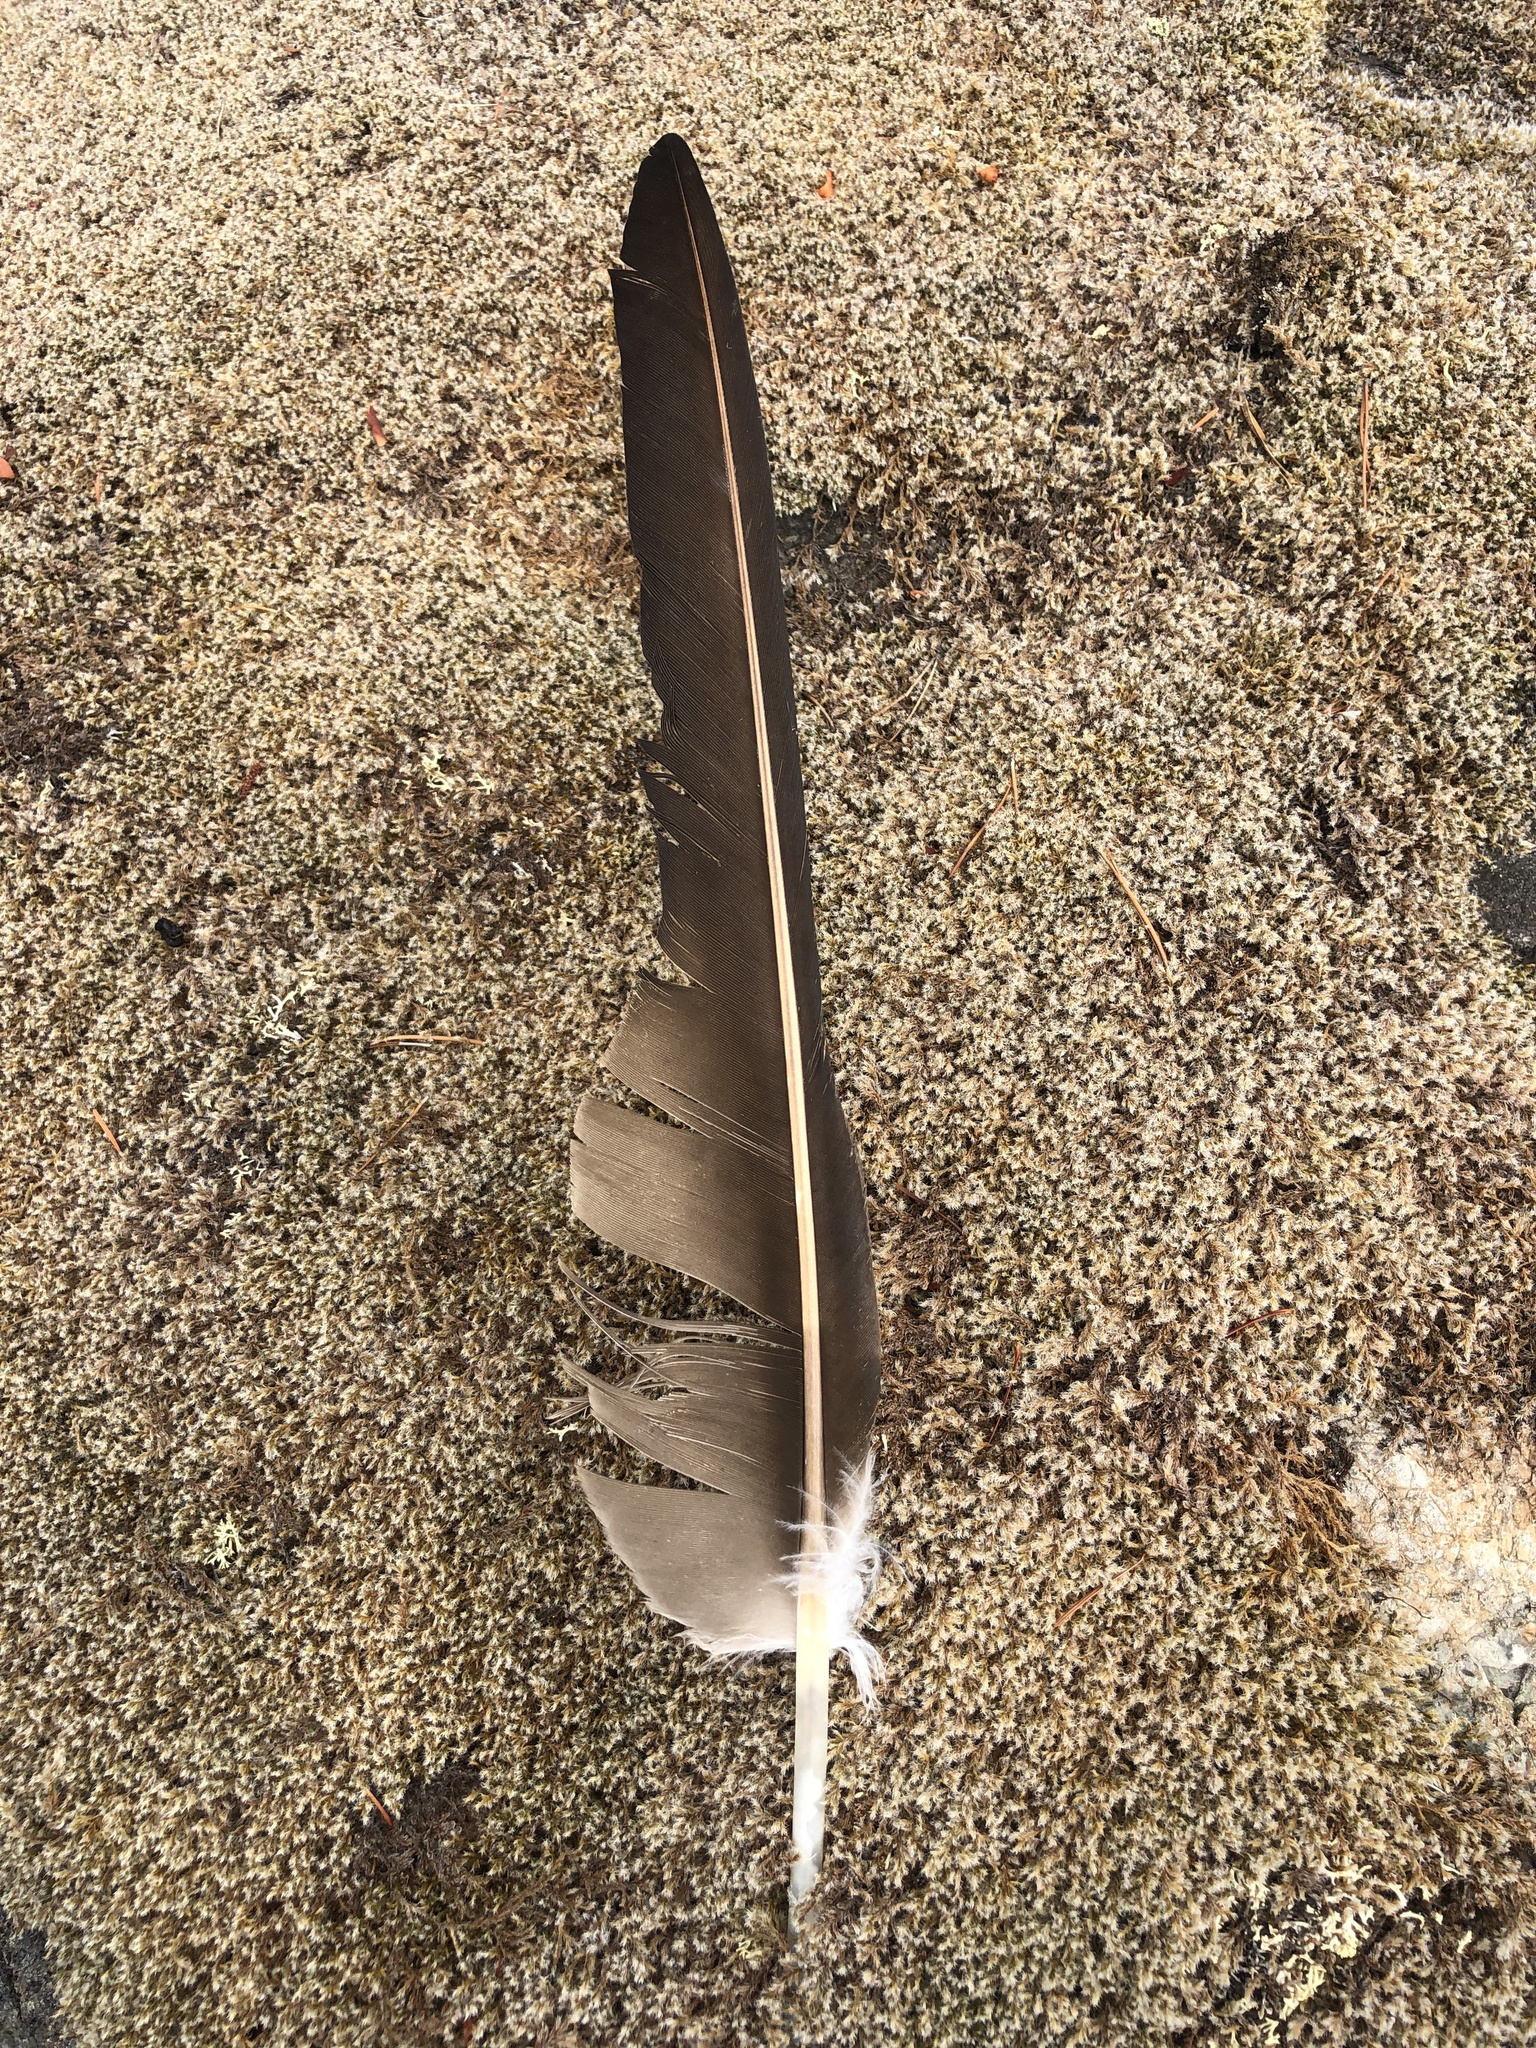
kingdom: Animalia
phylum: Chordata
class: Aves
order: Accipitriformes
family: Cathartidae
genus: Cathartes
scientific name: Cathartes aura
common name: Turkey vulture
